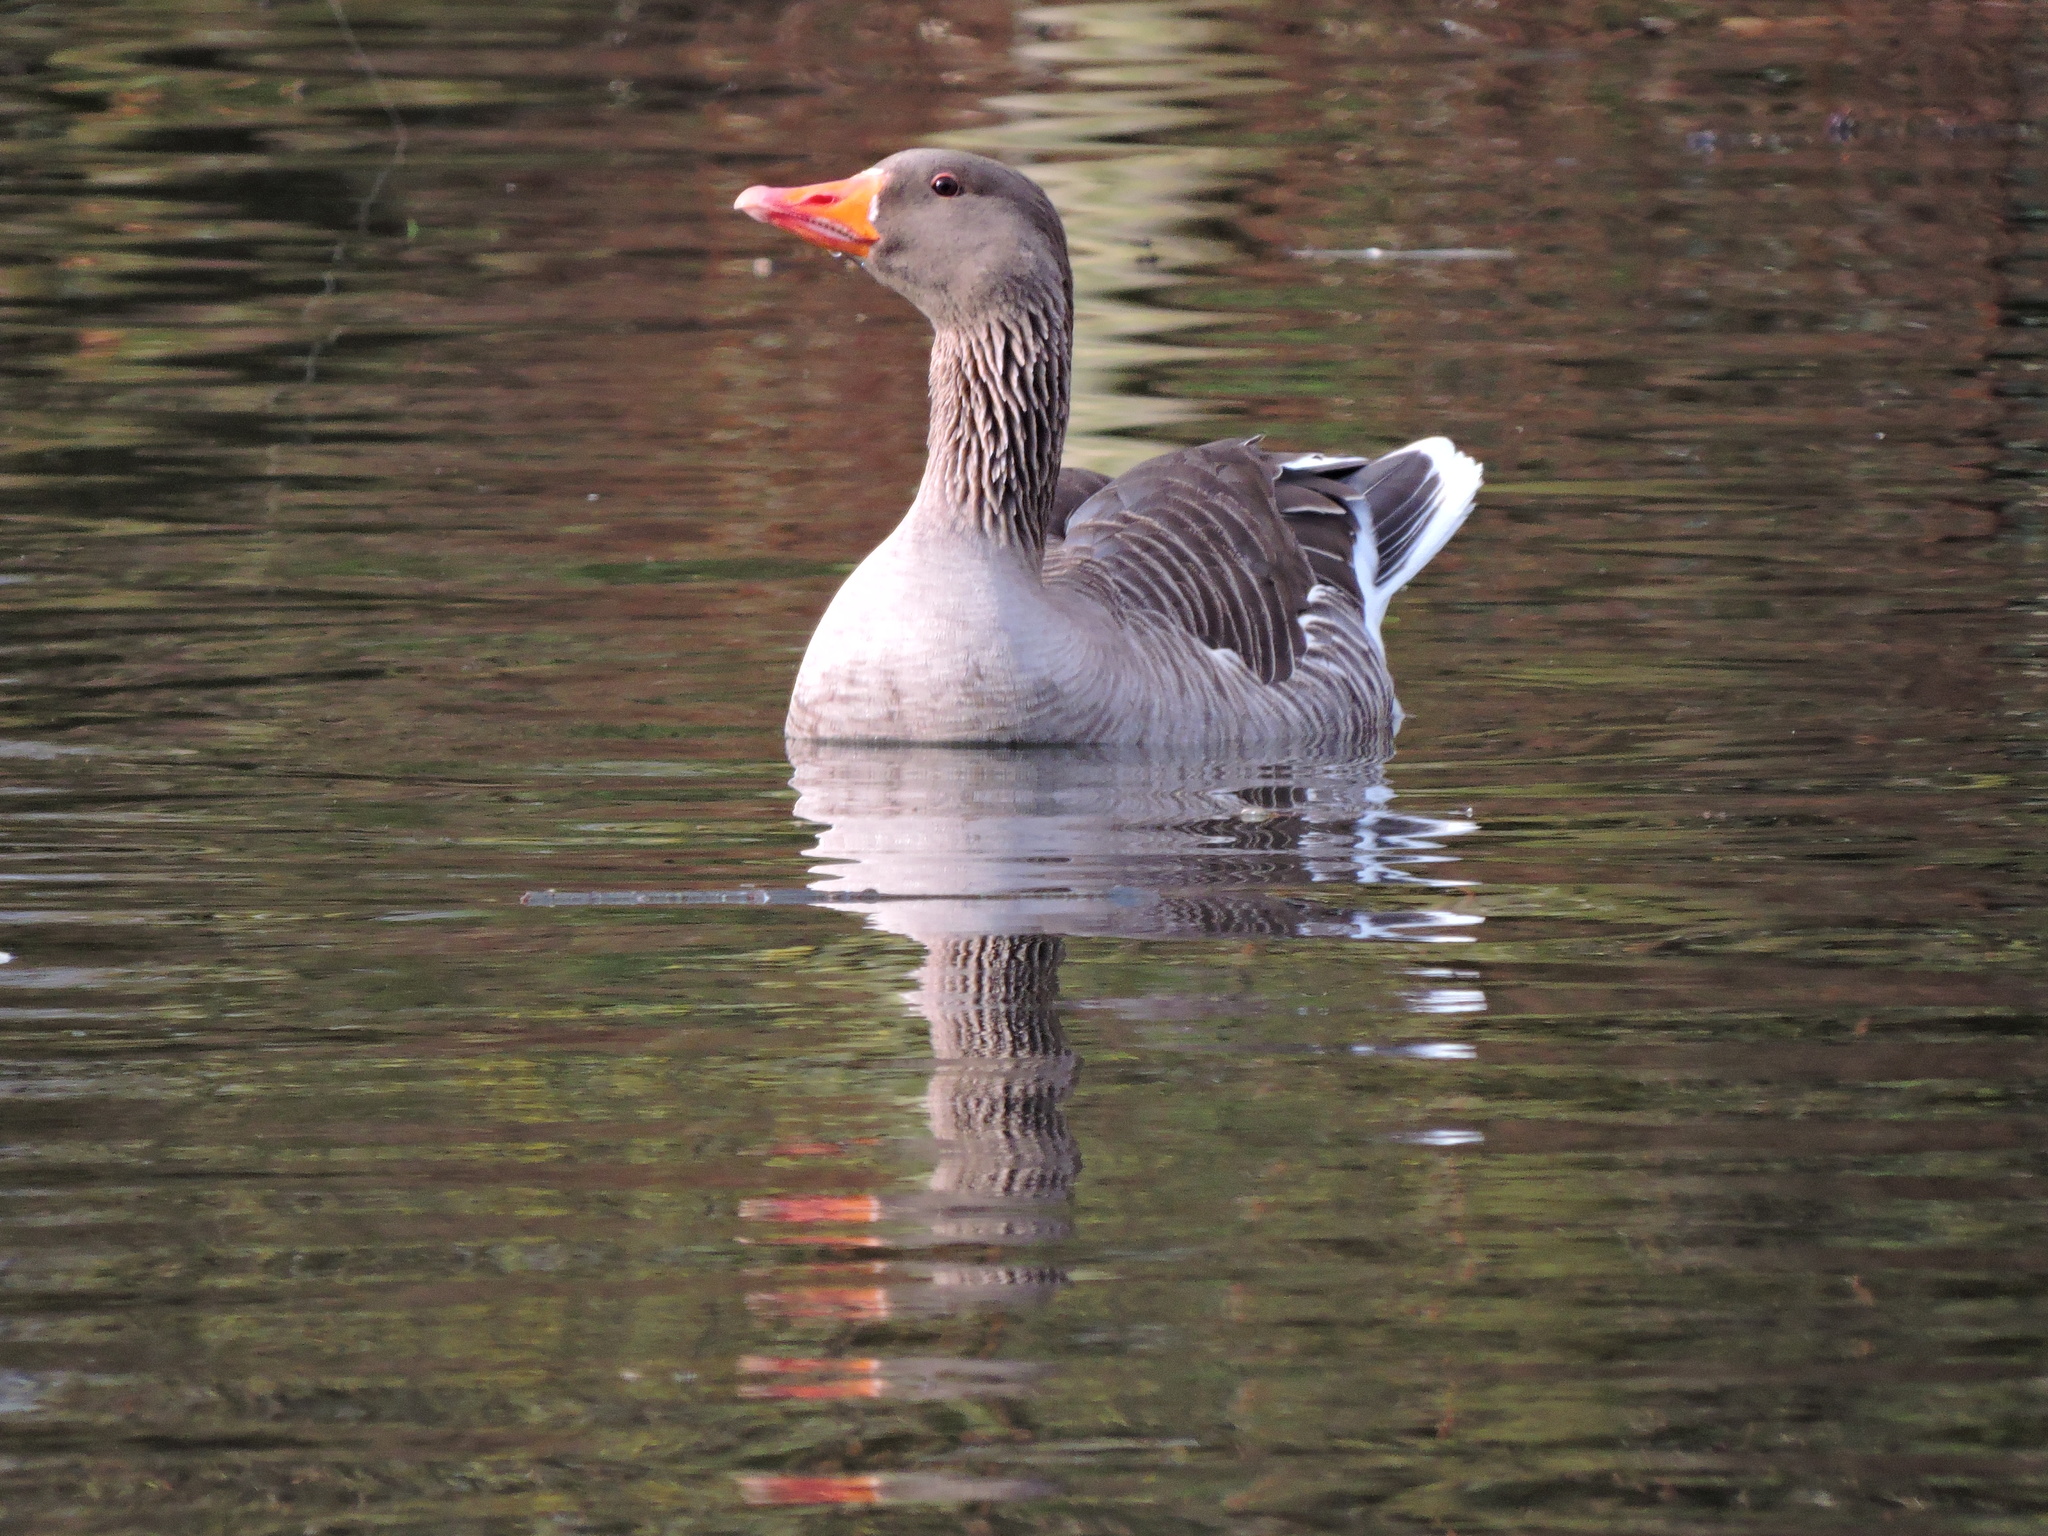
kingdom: Animalia
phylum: Chordata
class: Aves
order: Anseriformes
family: Anatidae
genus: Anser
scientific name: Anser anser
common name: Greylag goose
